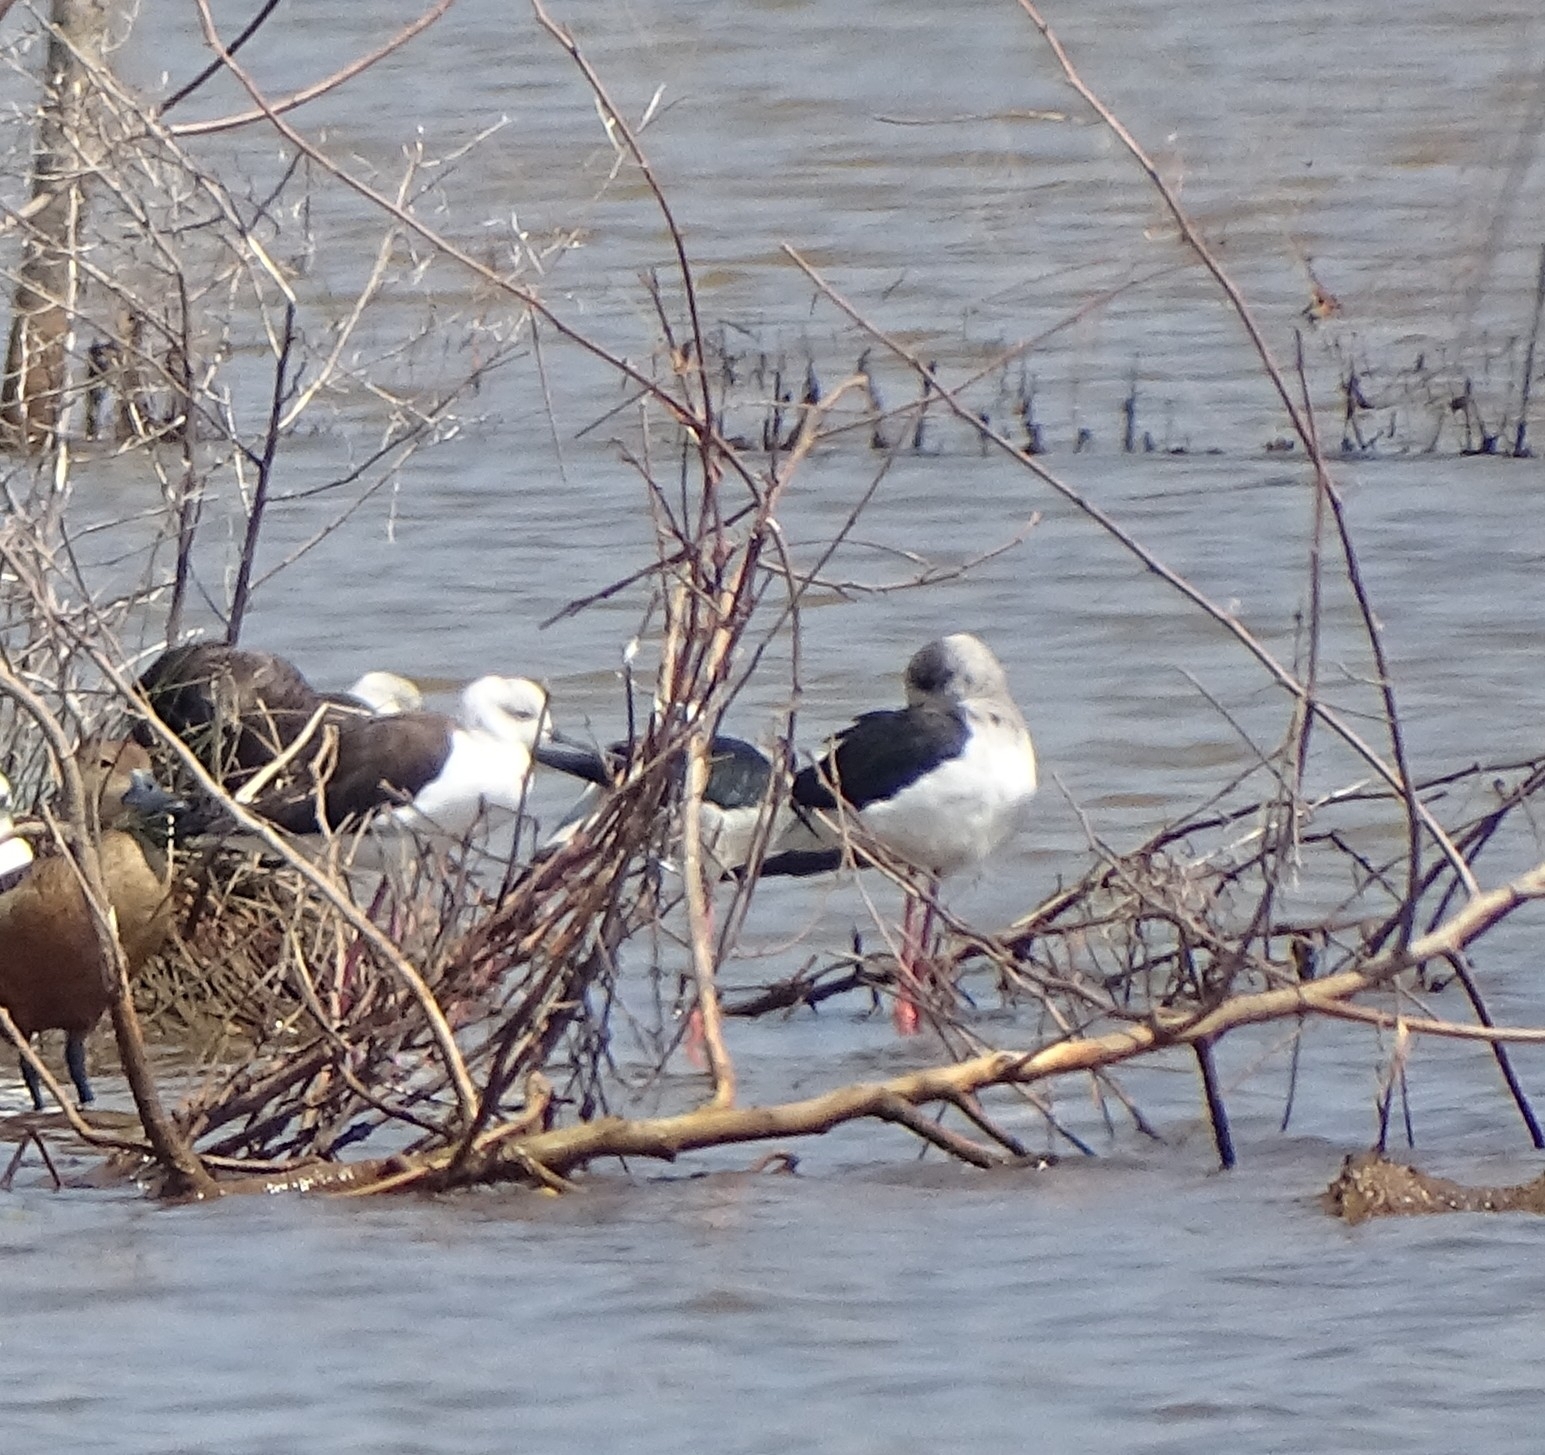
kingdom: Animalia
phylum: Chordata
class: Aves
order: Charadriiformes
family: Recurvirostridae
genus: Himantopus
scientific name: Himantopus himantopus
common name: Black-winged stilt
